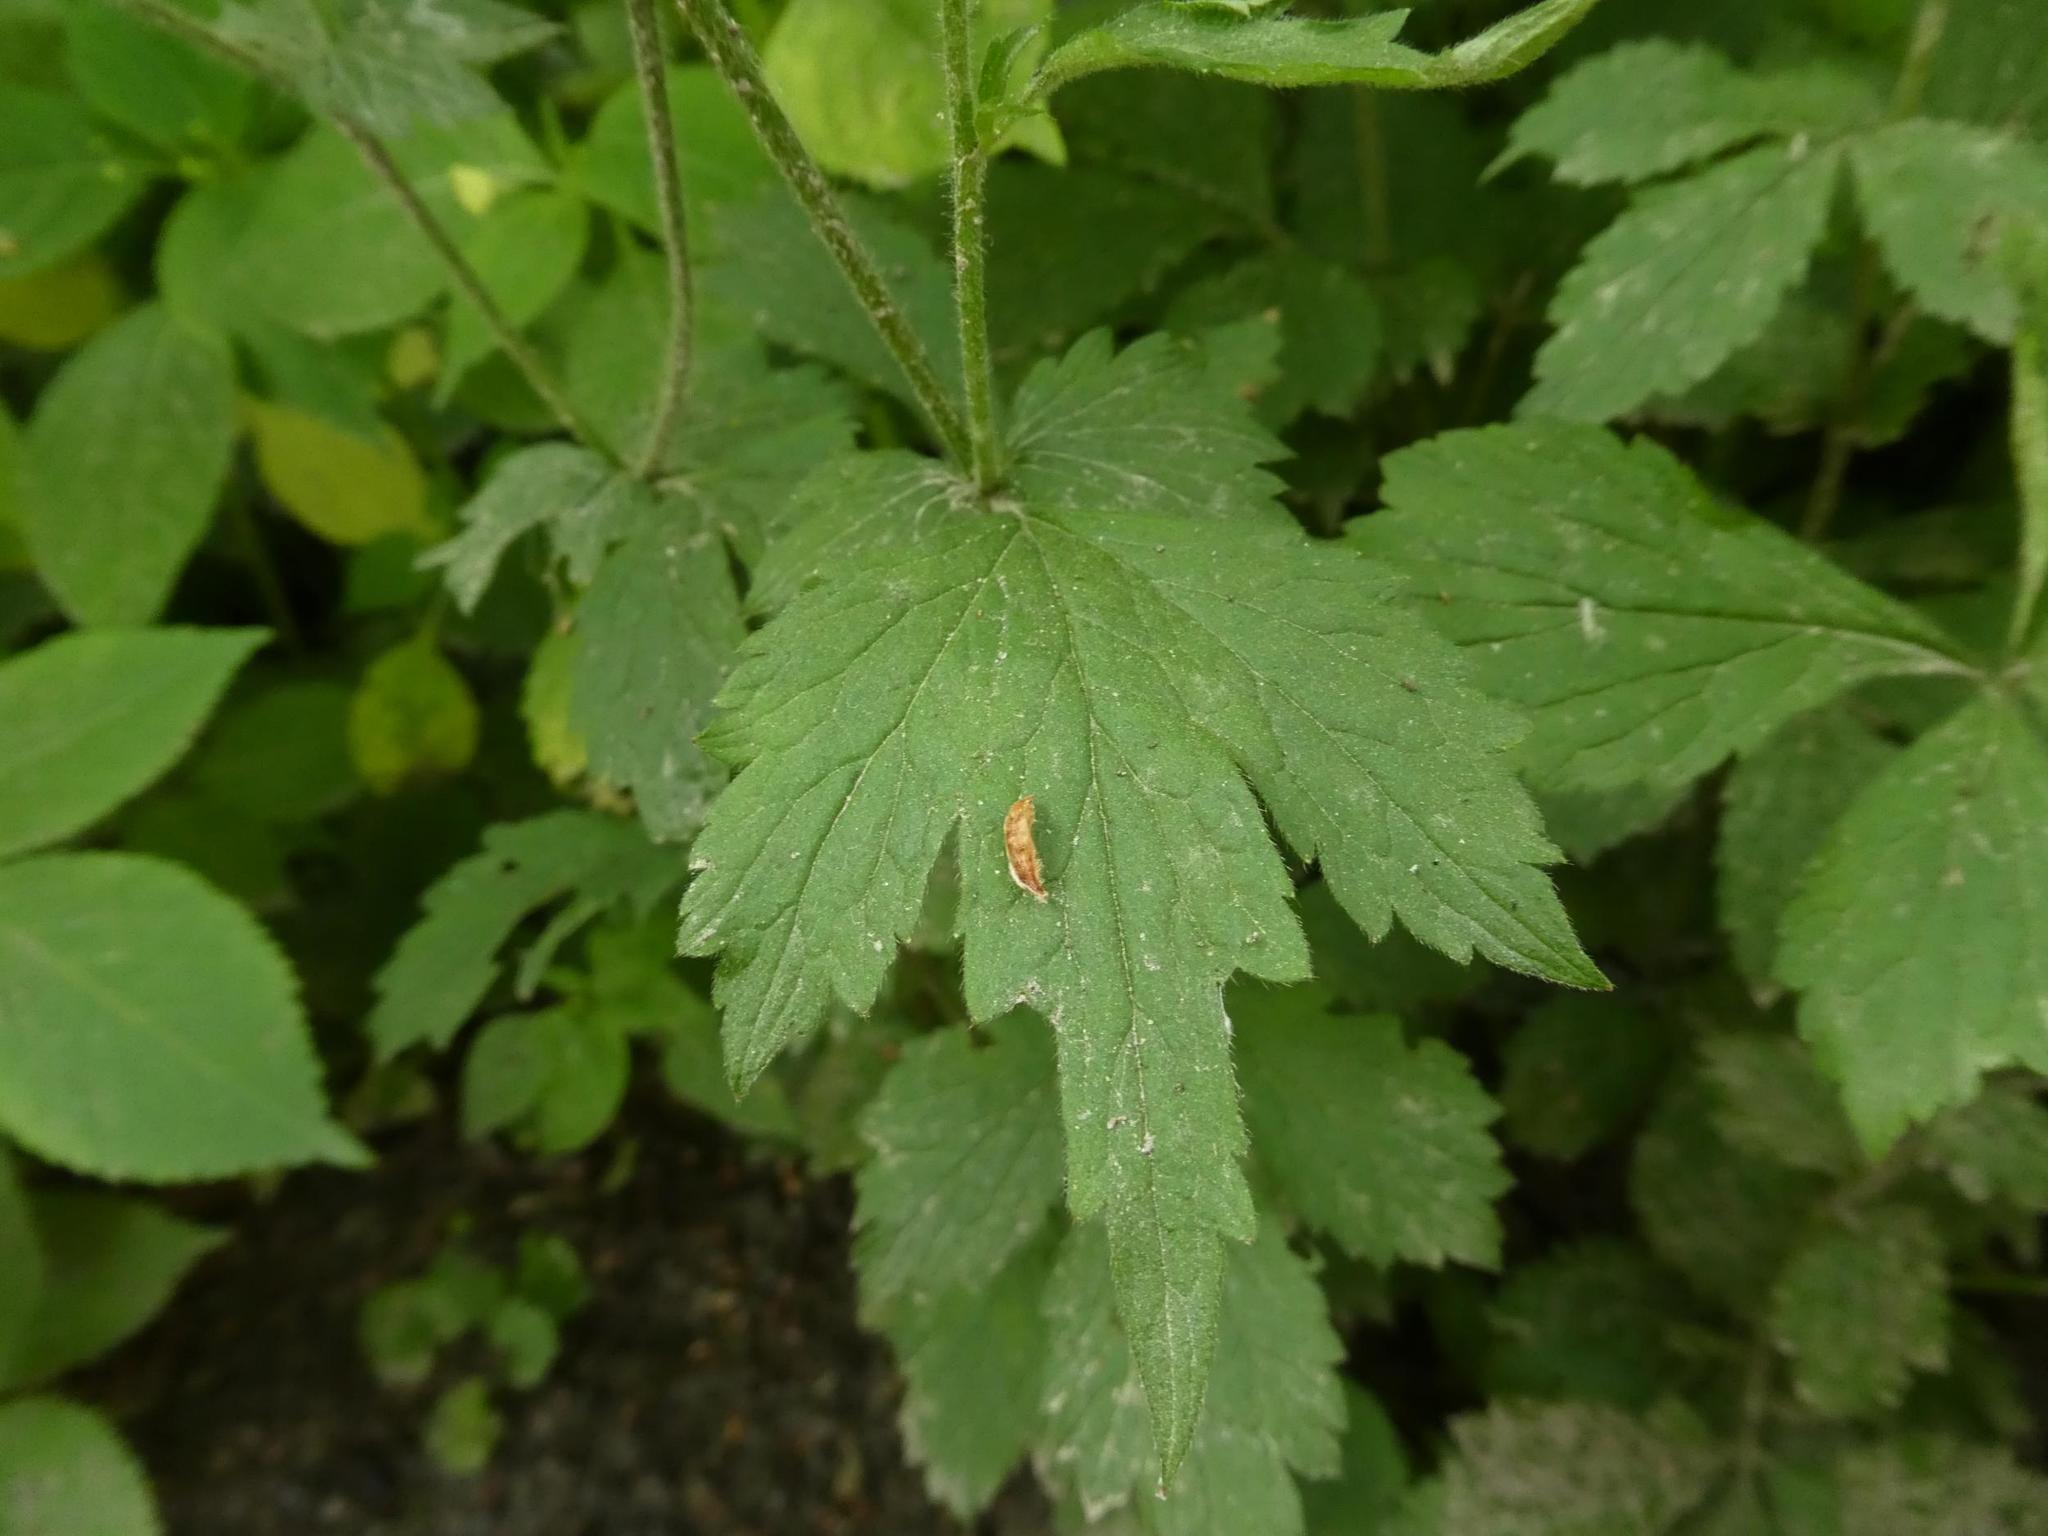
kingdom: Plantae
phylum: Tracheophyta
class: Magnoliopsida
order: Rosales
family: Rosaceae
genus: Geum
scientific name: Geum urbanum
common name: Wood avens
